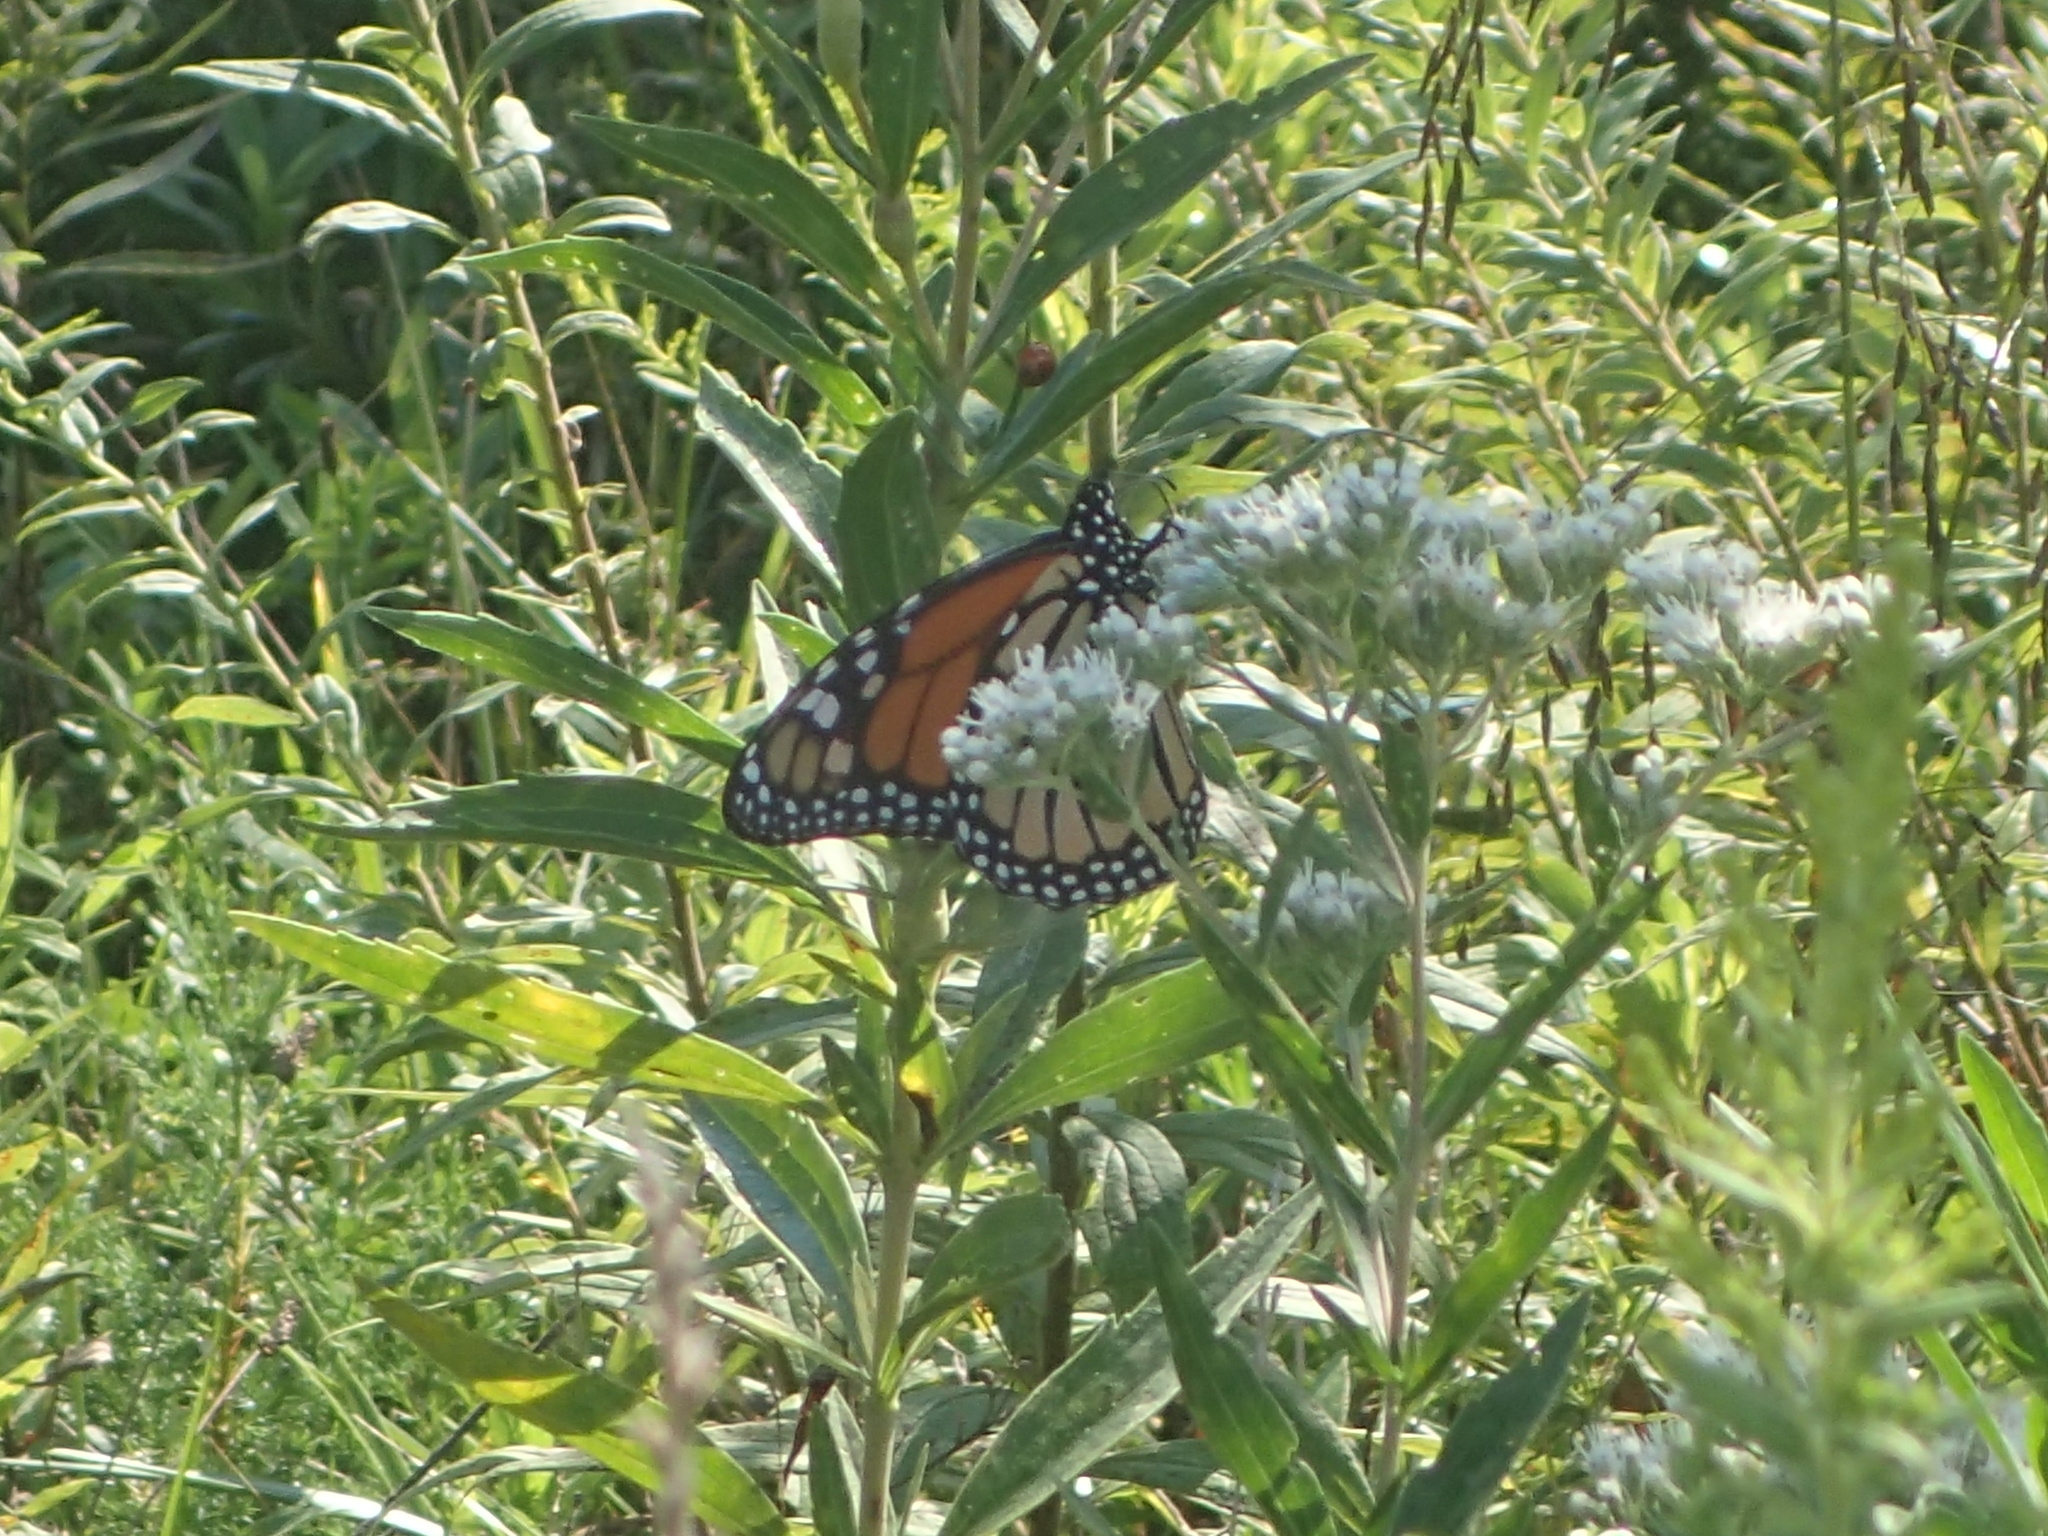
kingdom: Animalia
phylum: Arthropoda
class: Insecta
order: Lepidoptera
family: Nymphalidae
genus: Danaus
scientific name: Danaus plexippus
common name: Monarch
